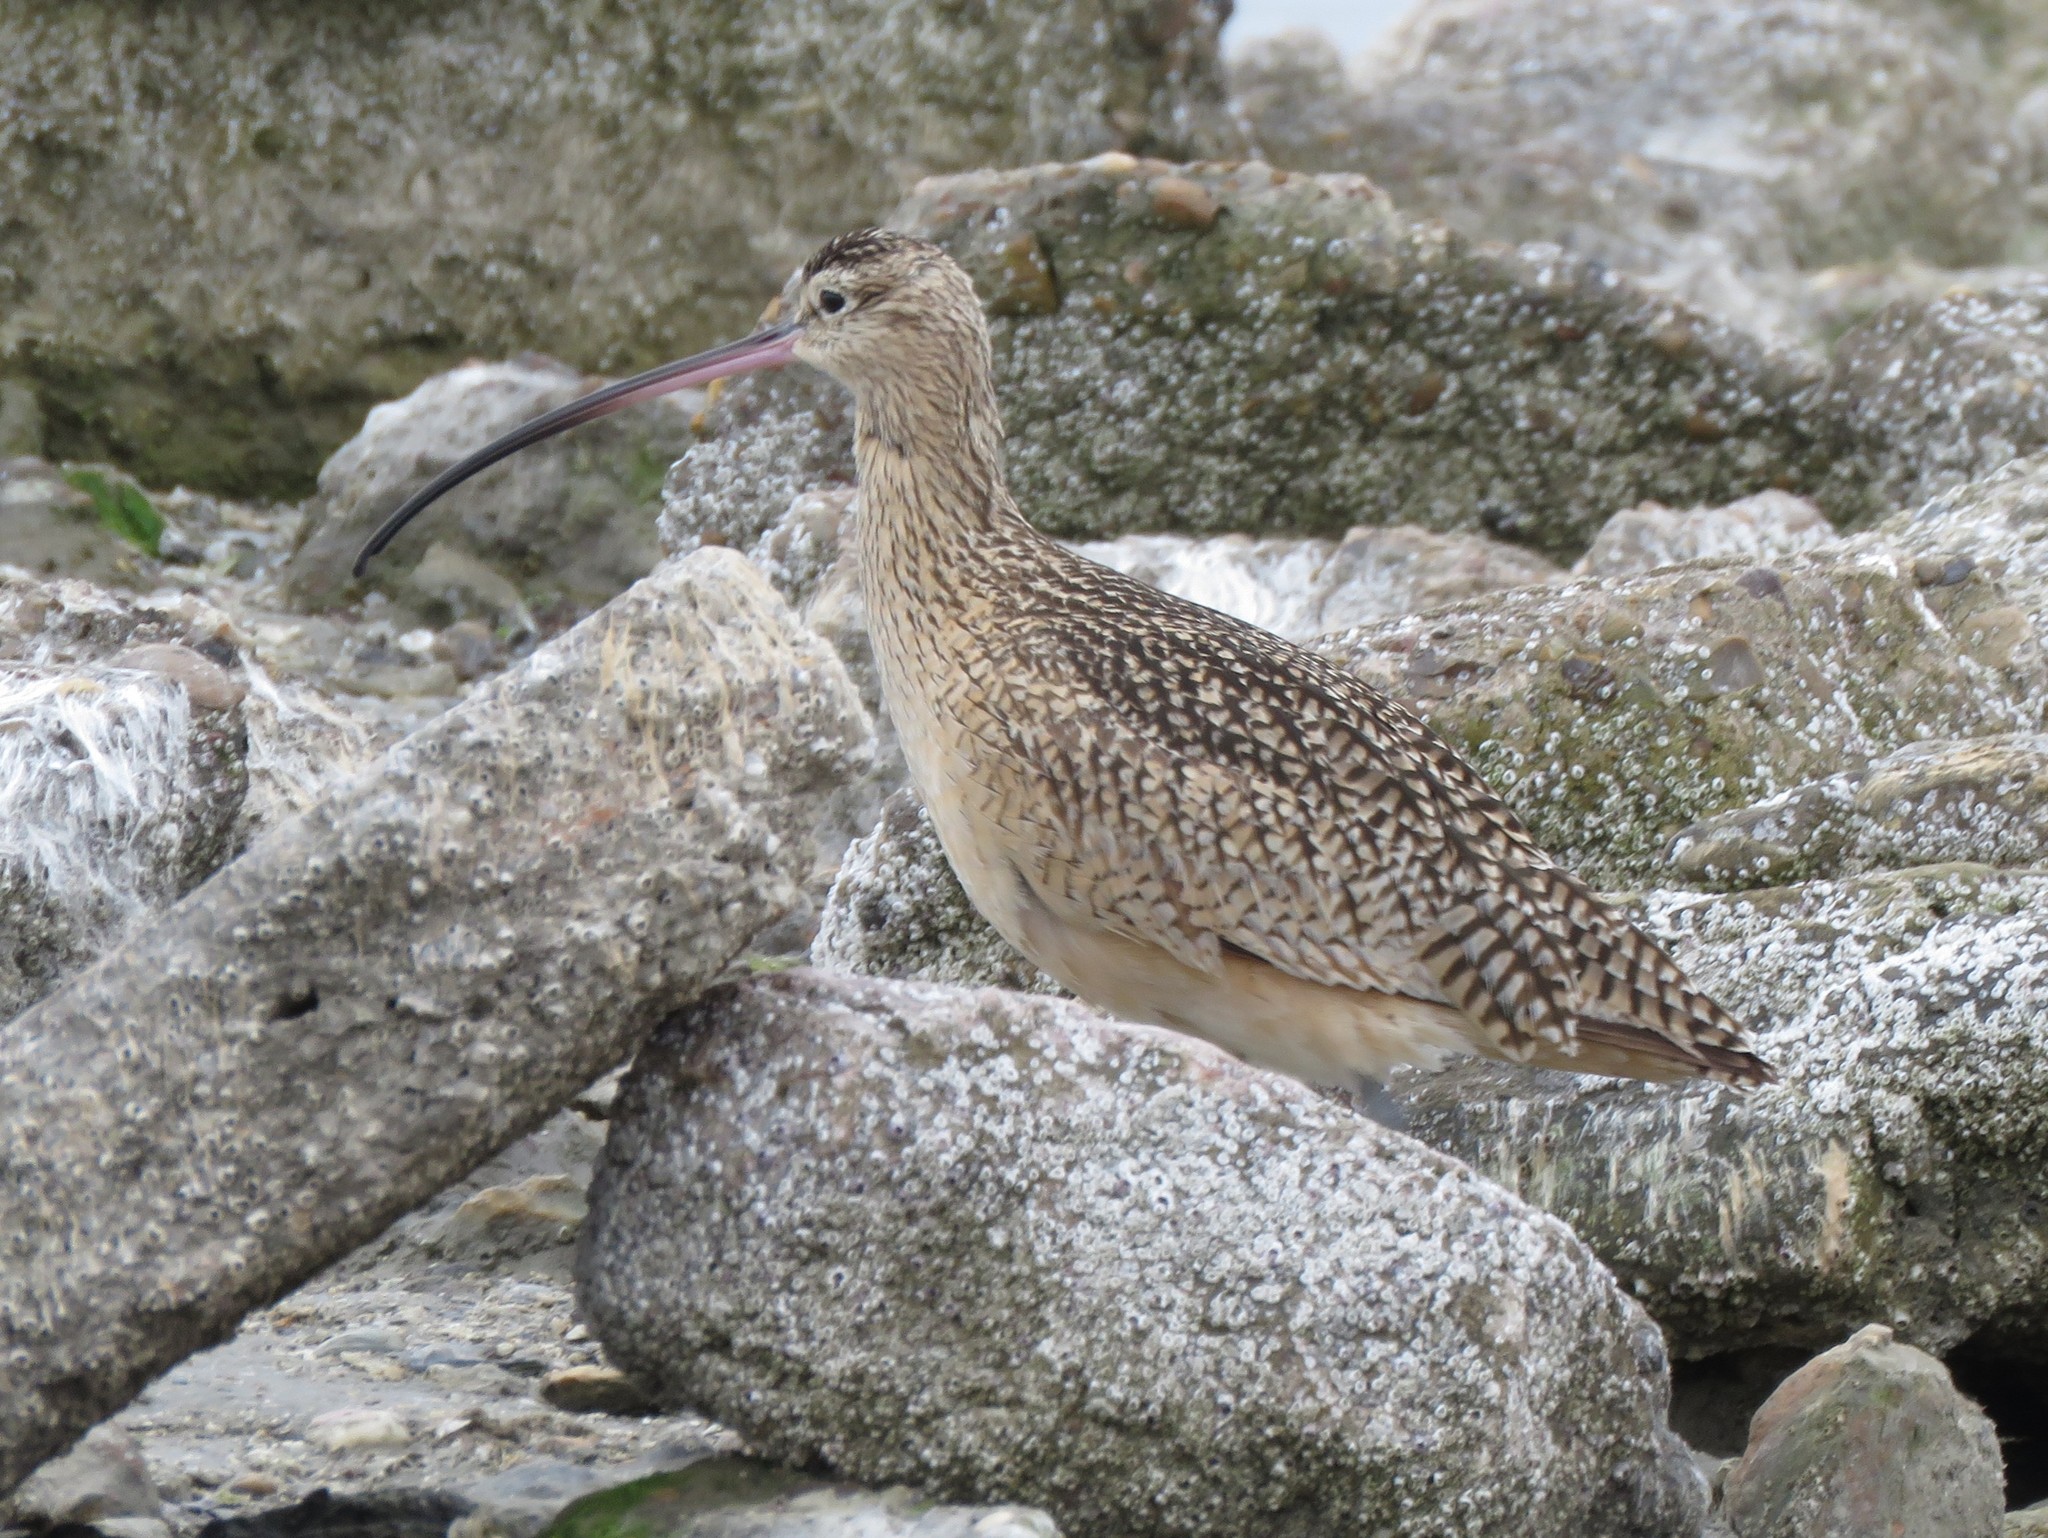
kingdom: Animalia
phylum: Chordata
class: Aves
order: Charadriiformes
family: Scolopacidae
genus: Numenius
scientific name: Numenius americanus
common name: Long-billed curlew
